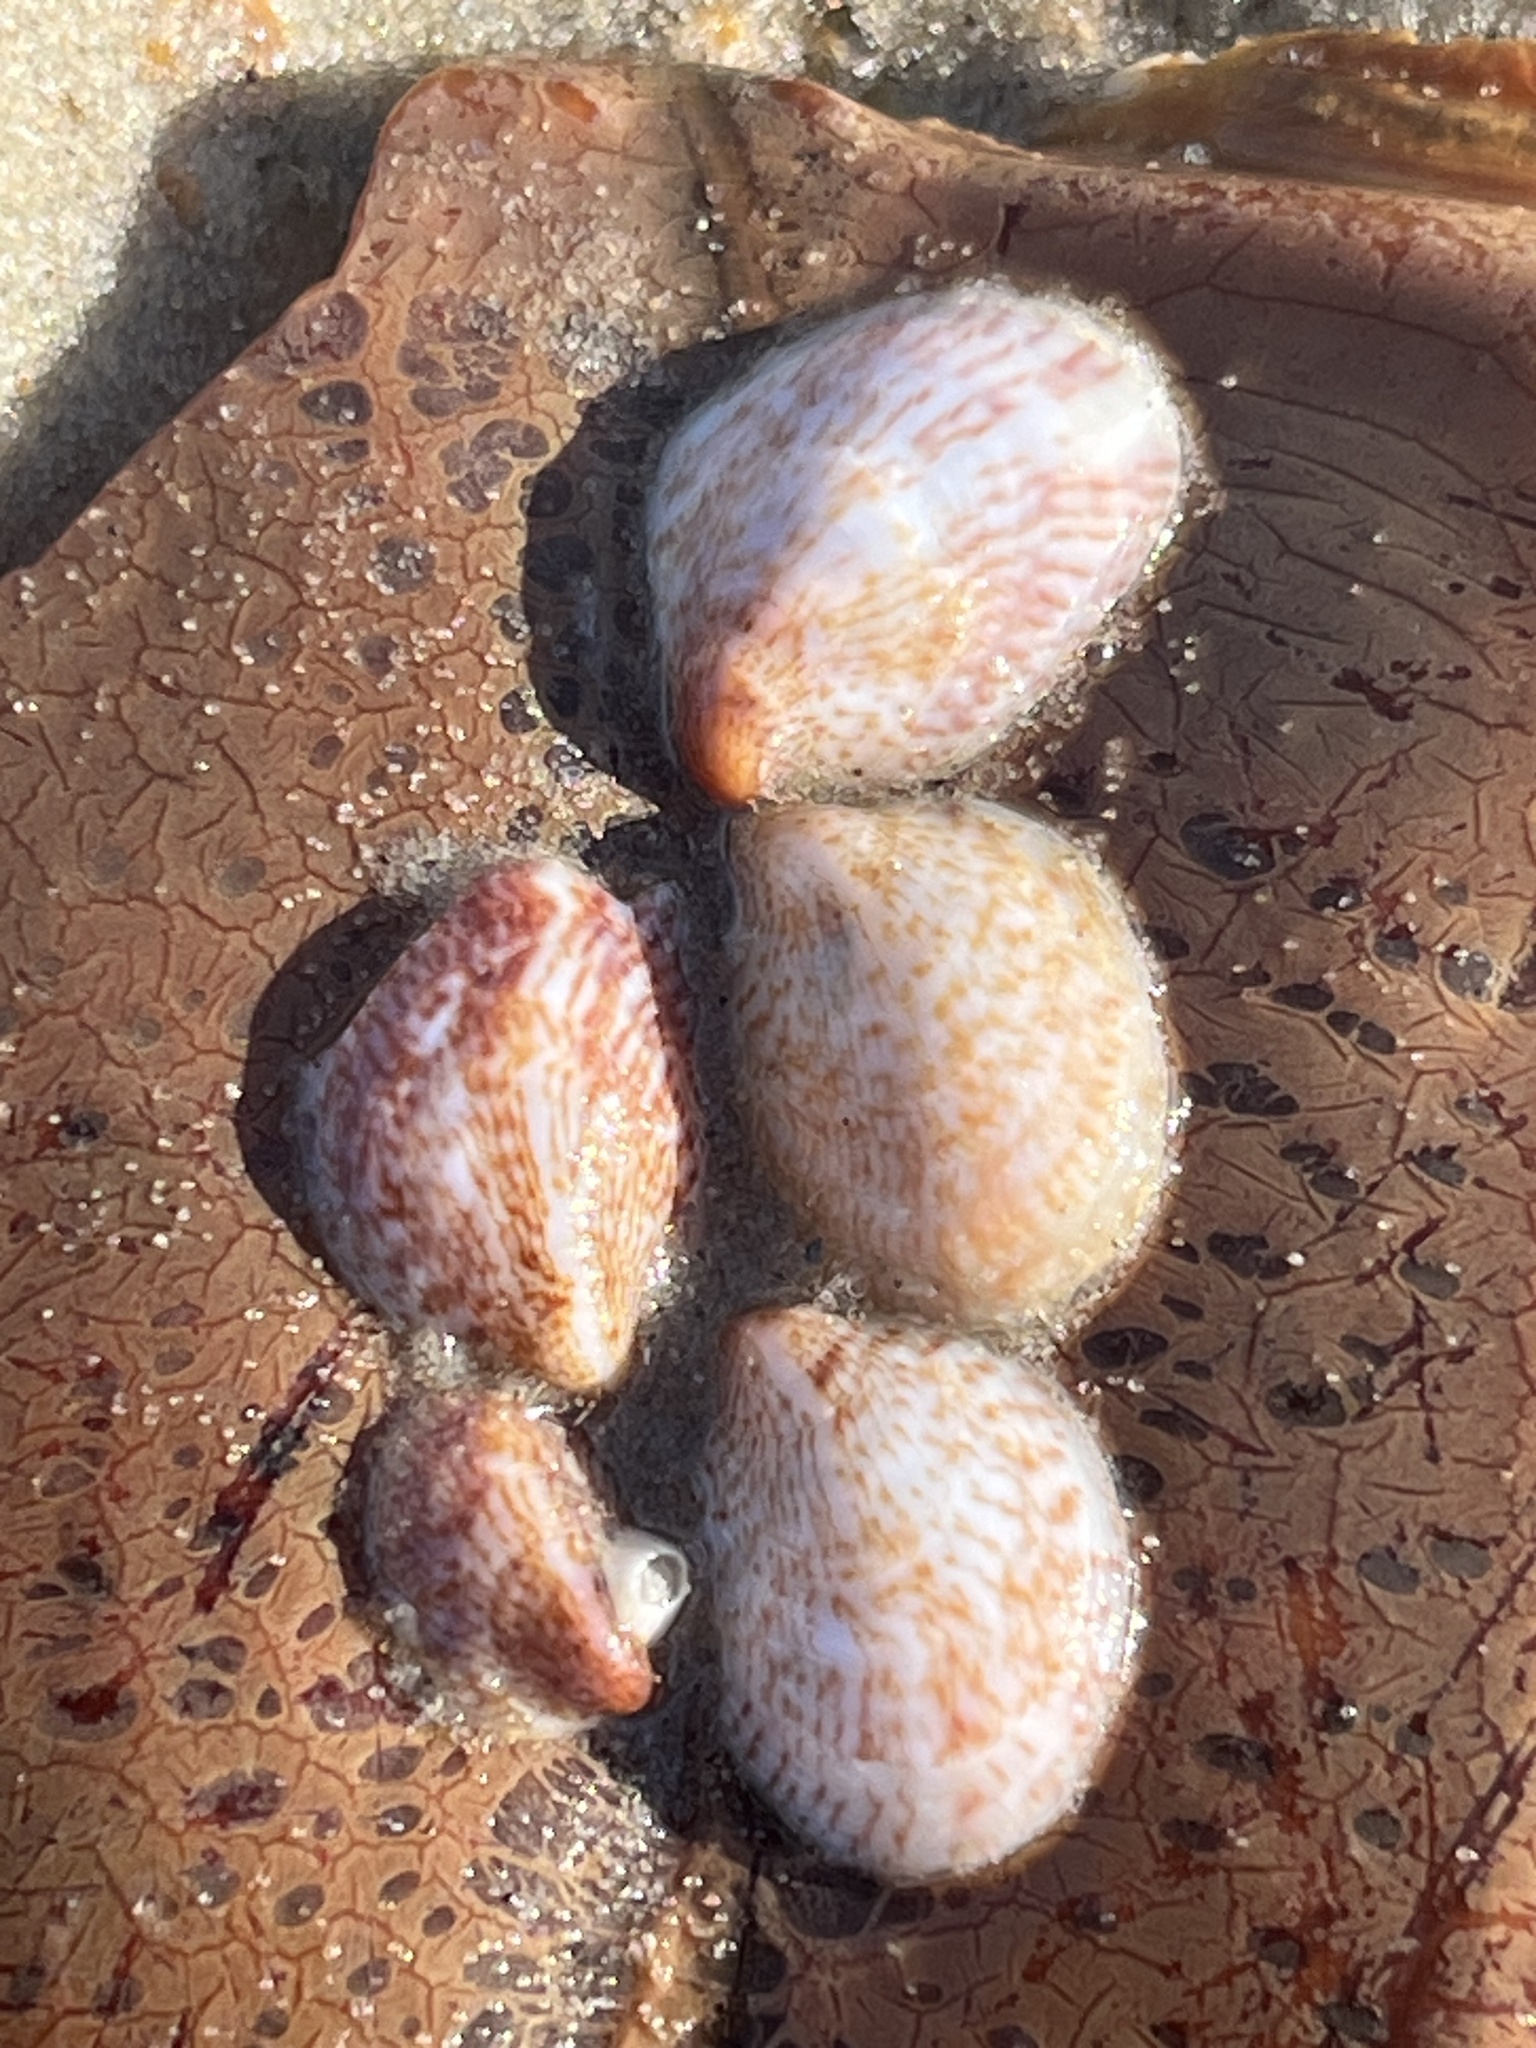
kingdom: Animalia
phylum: Mollusca
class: Gastropoda
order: Littorinimorpha
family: Calyptraeidae
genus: Crepidula
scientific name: Crepidula fornicata
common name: Slipper limpet
